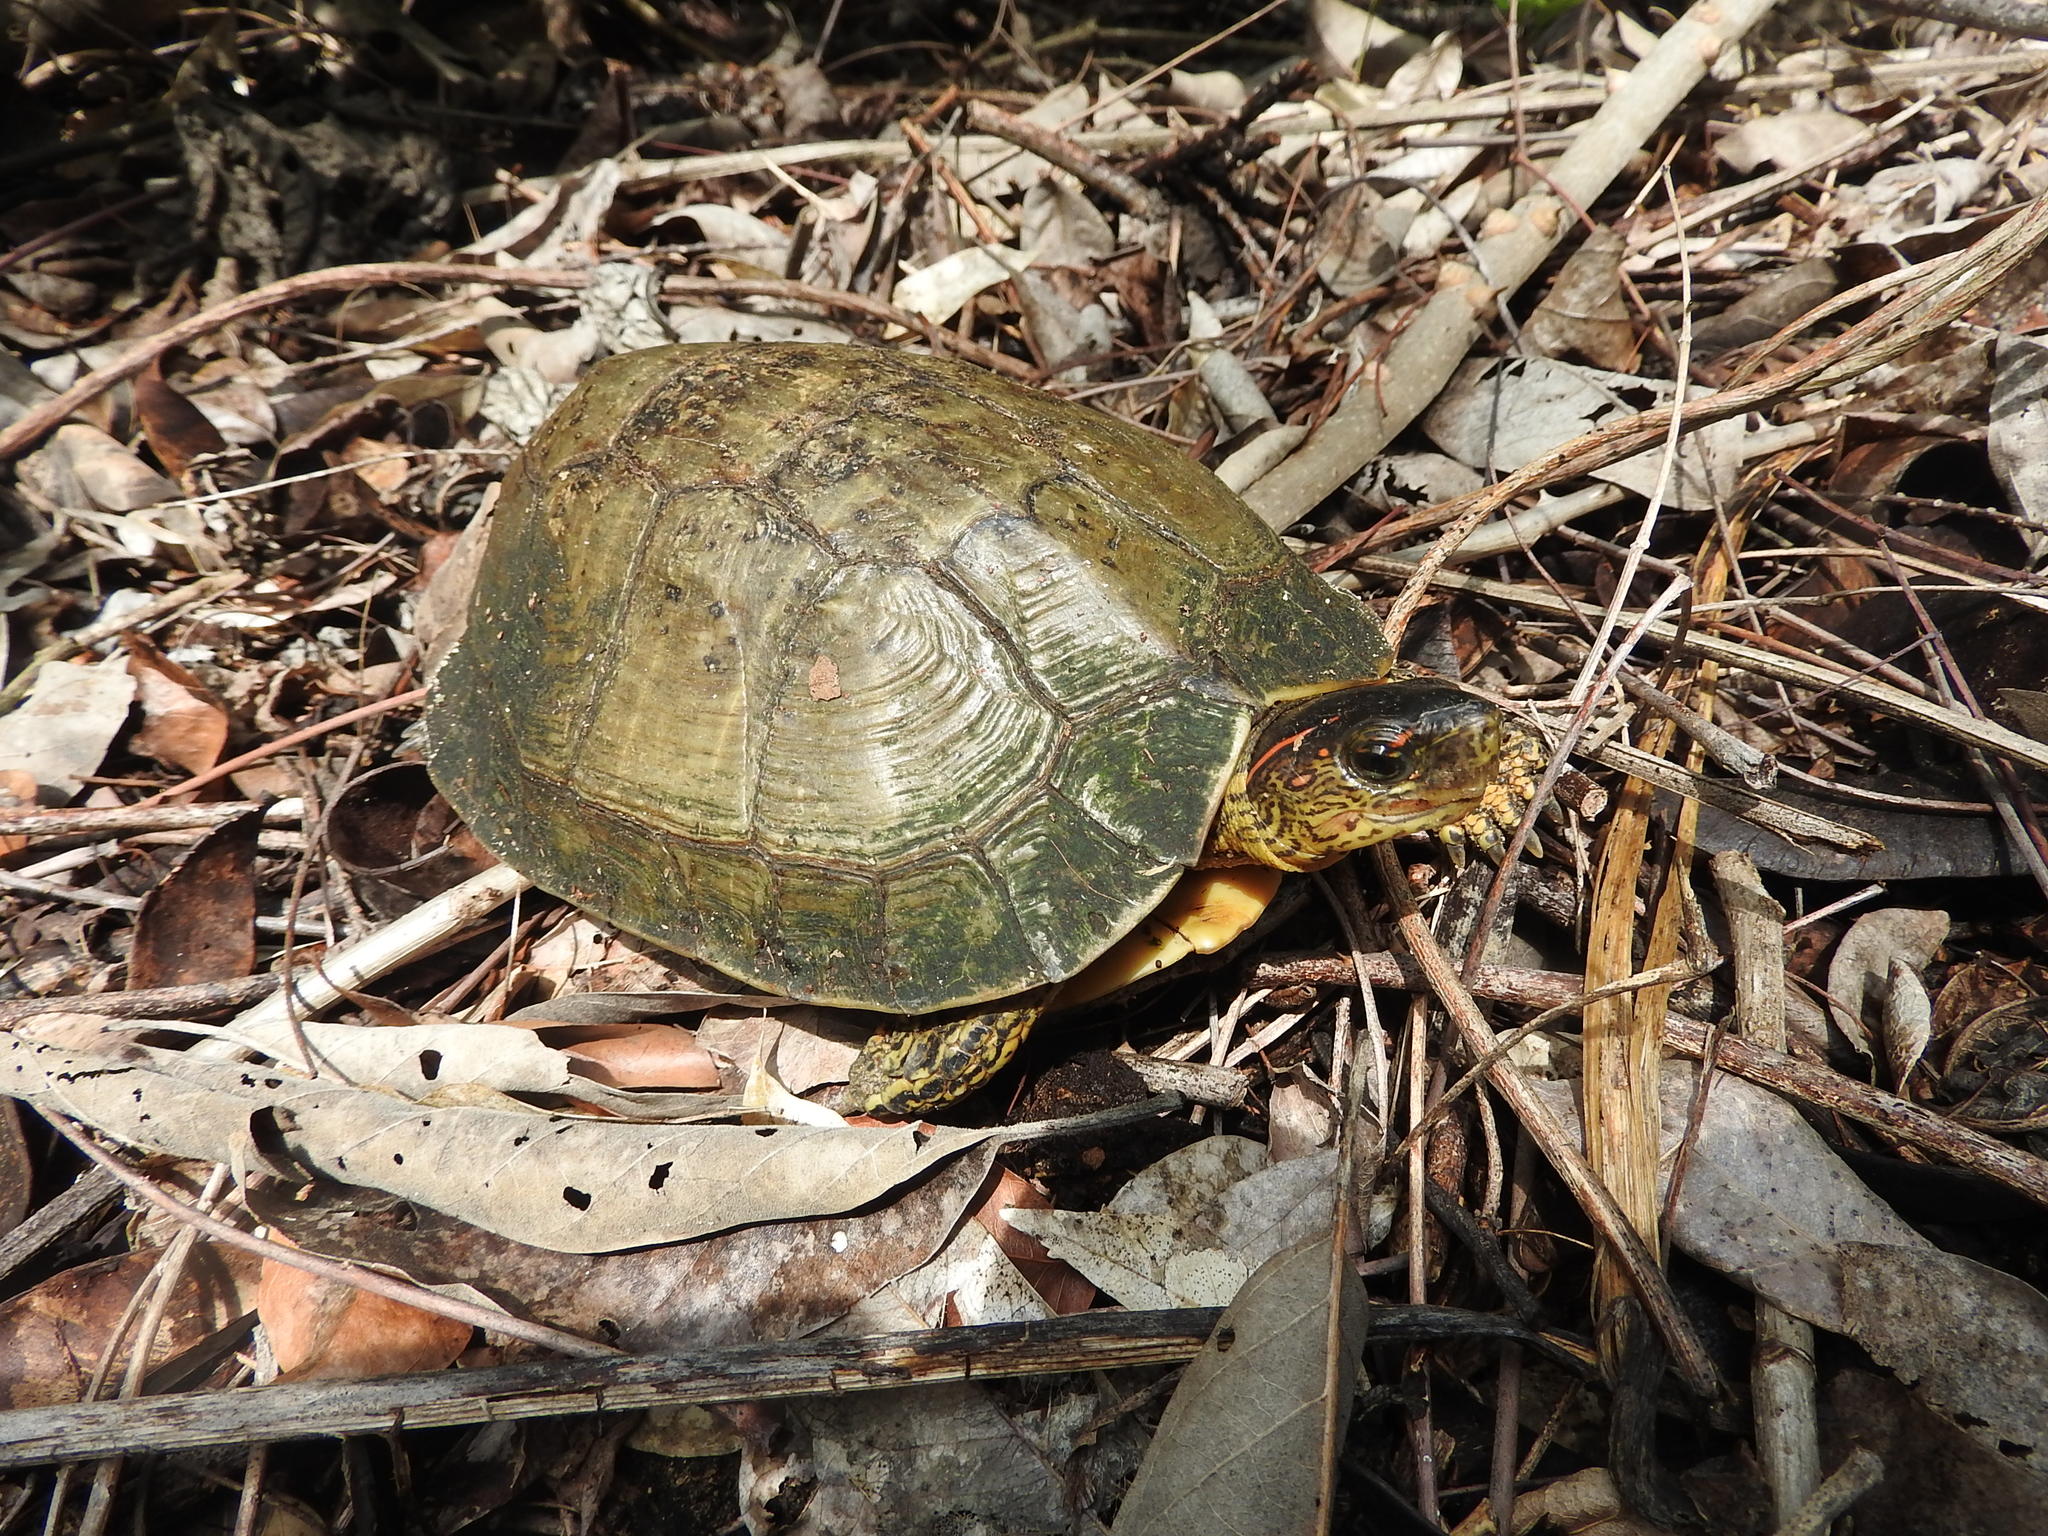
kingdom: Animalia
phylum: Chordata
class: Testudines
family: Geoemydidae
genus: Rhinoclemmys
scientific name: Rhinoclemmys areolata
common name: Furrowed wood turtle
